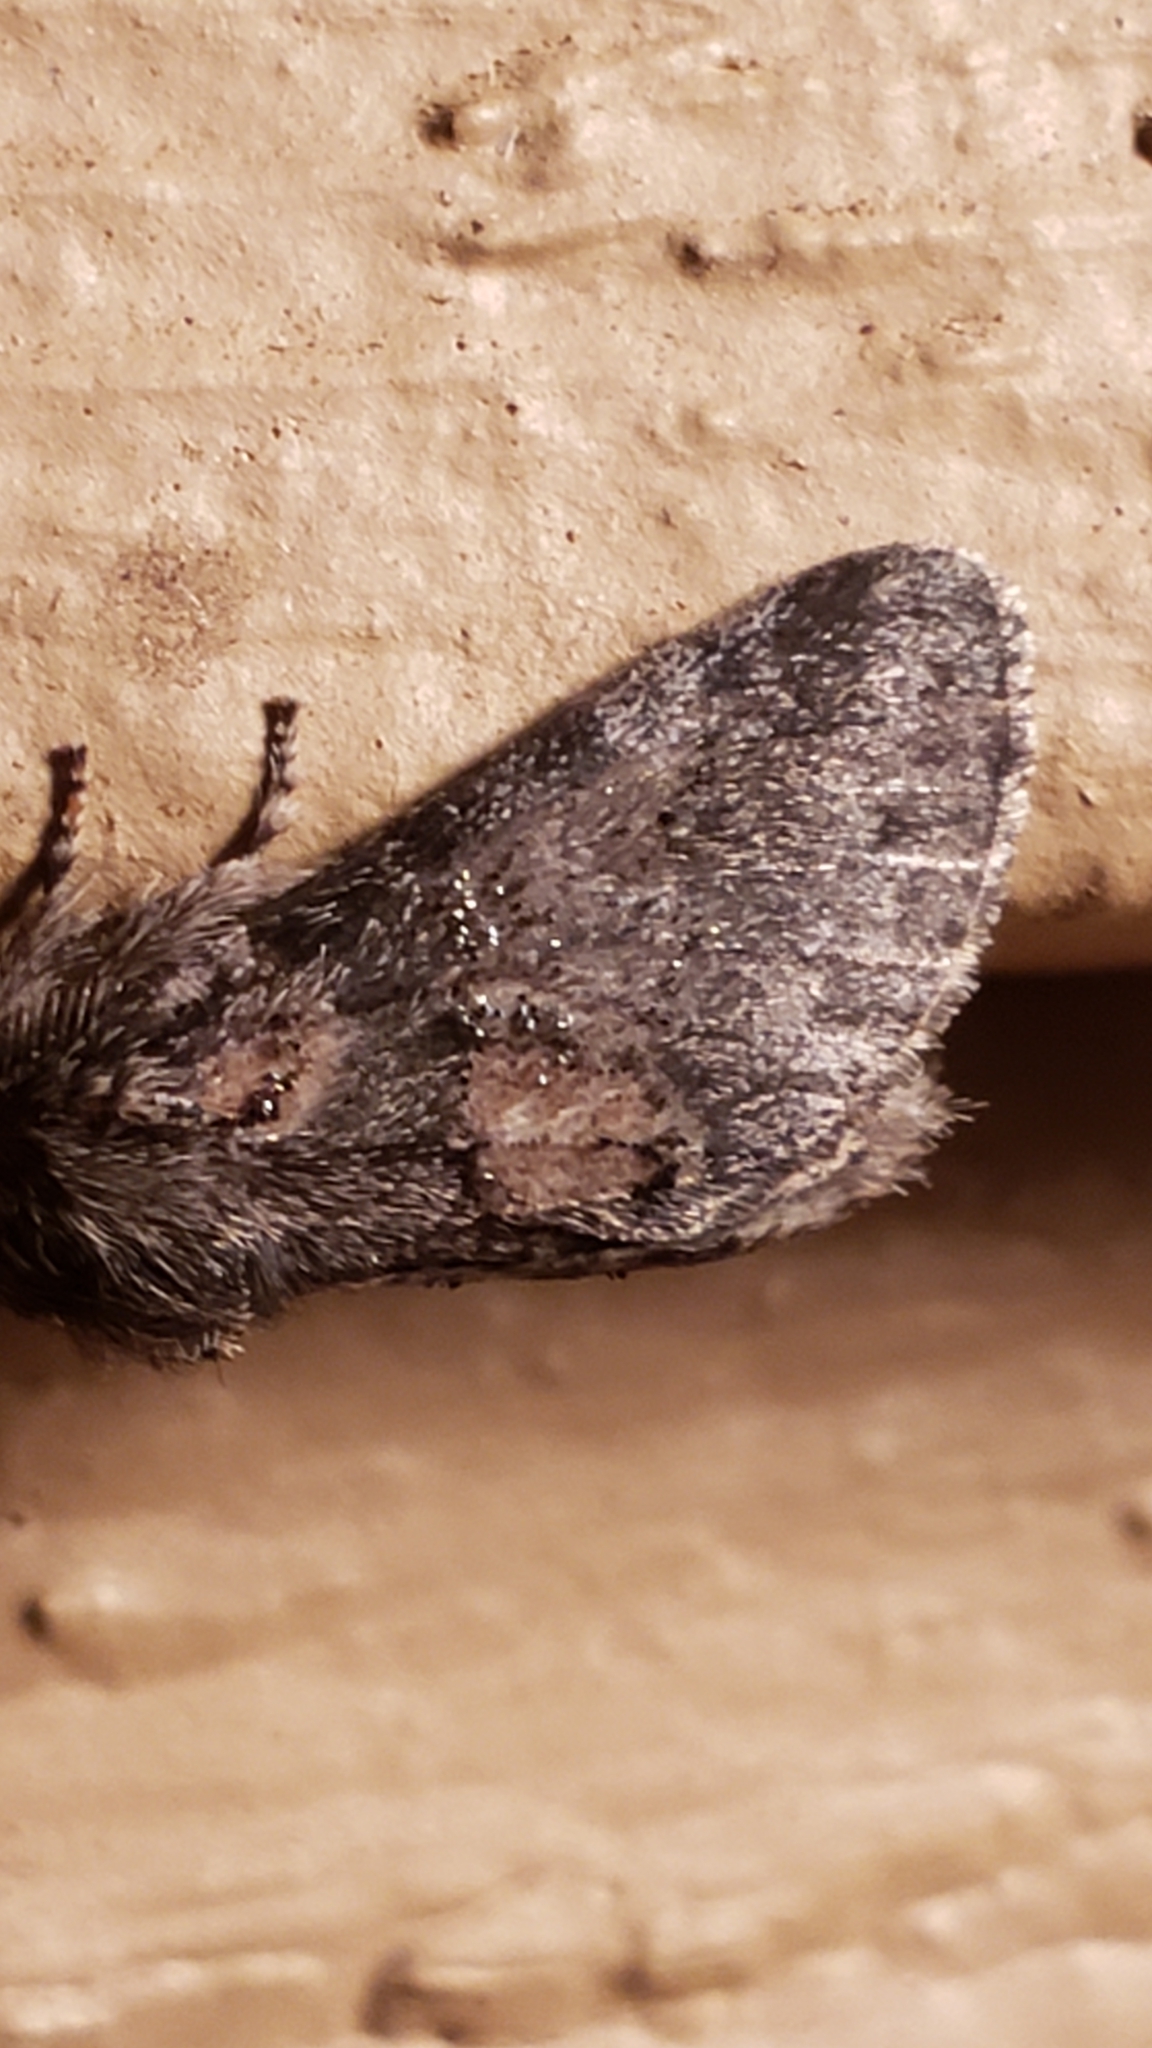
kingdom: Animalia
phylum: Arthropoda
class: Insecta
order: Lepidoptera
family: Notodontidae
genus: Gluphisia
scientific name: Gluphisia septentrionis
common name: Common gluphisia
